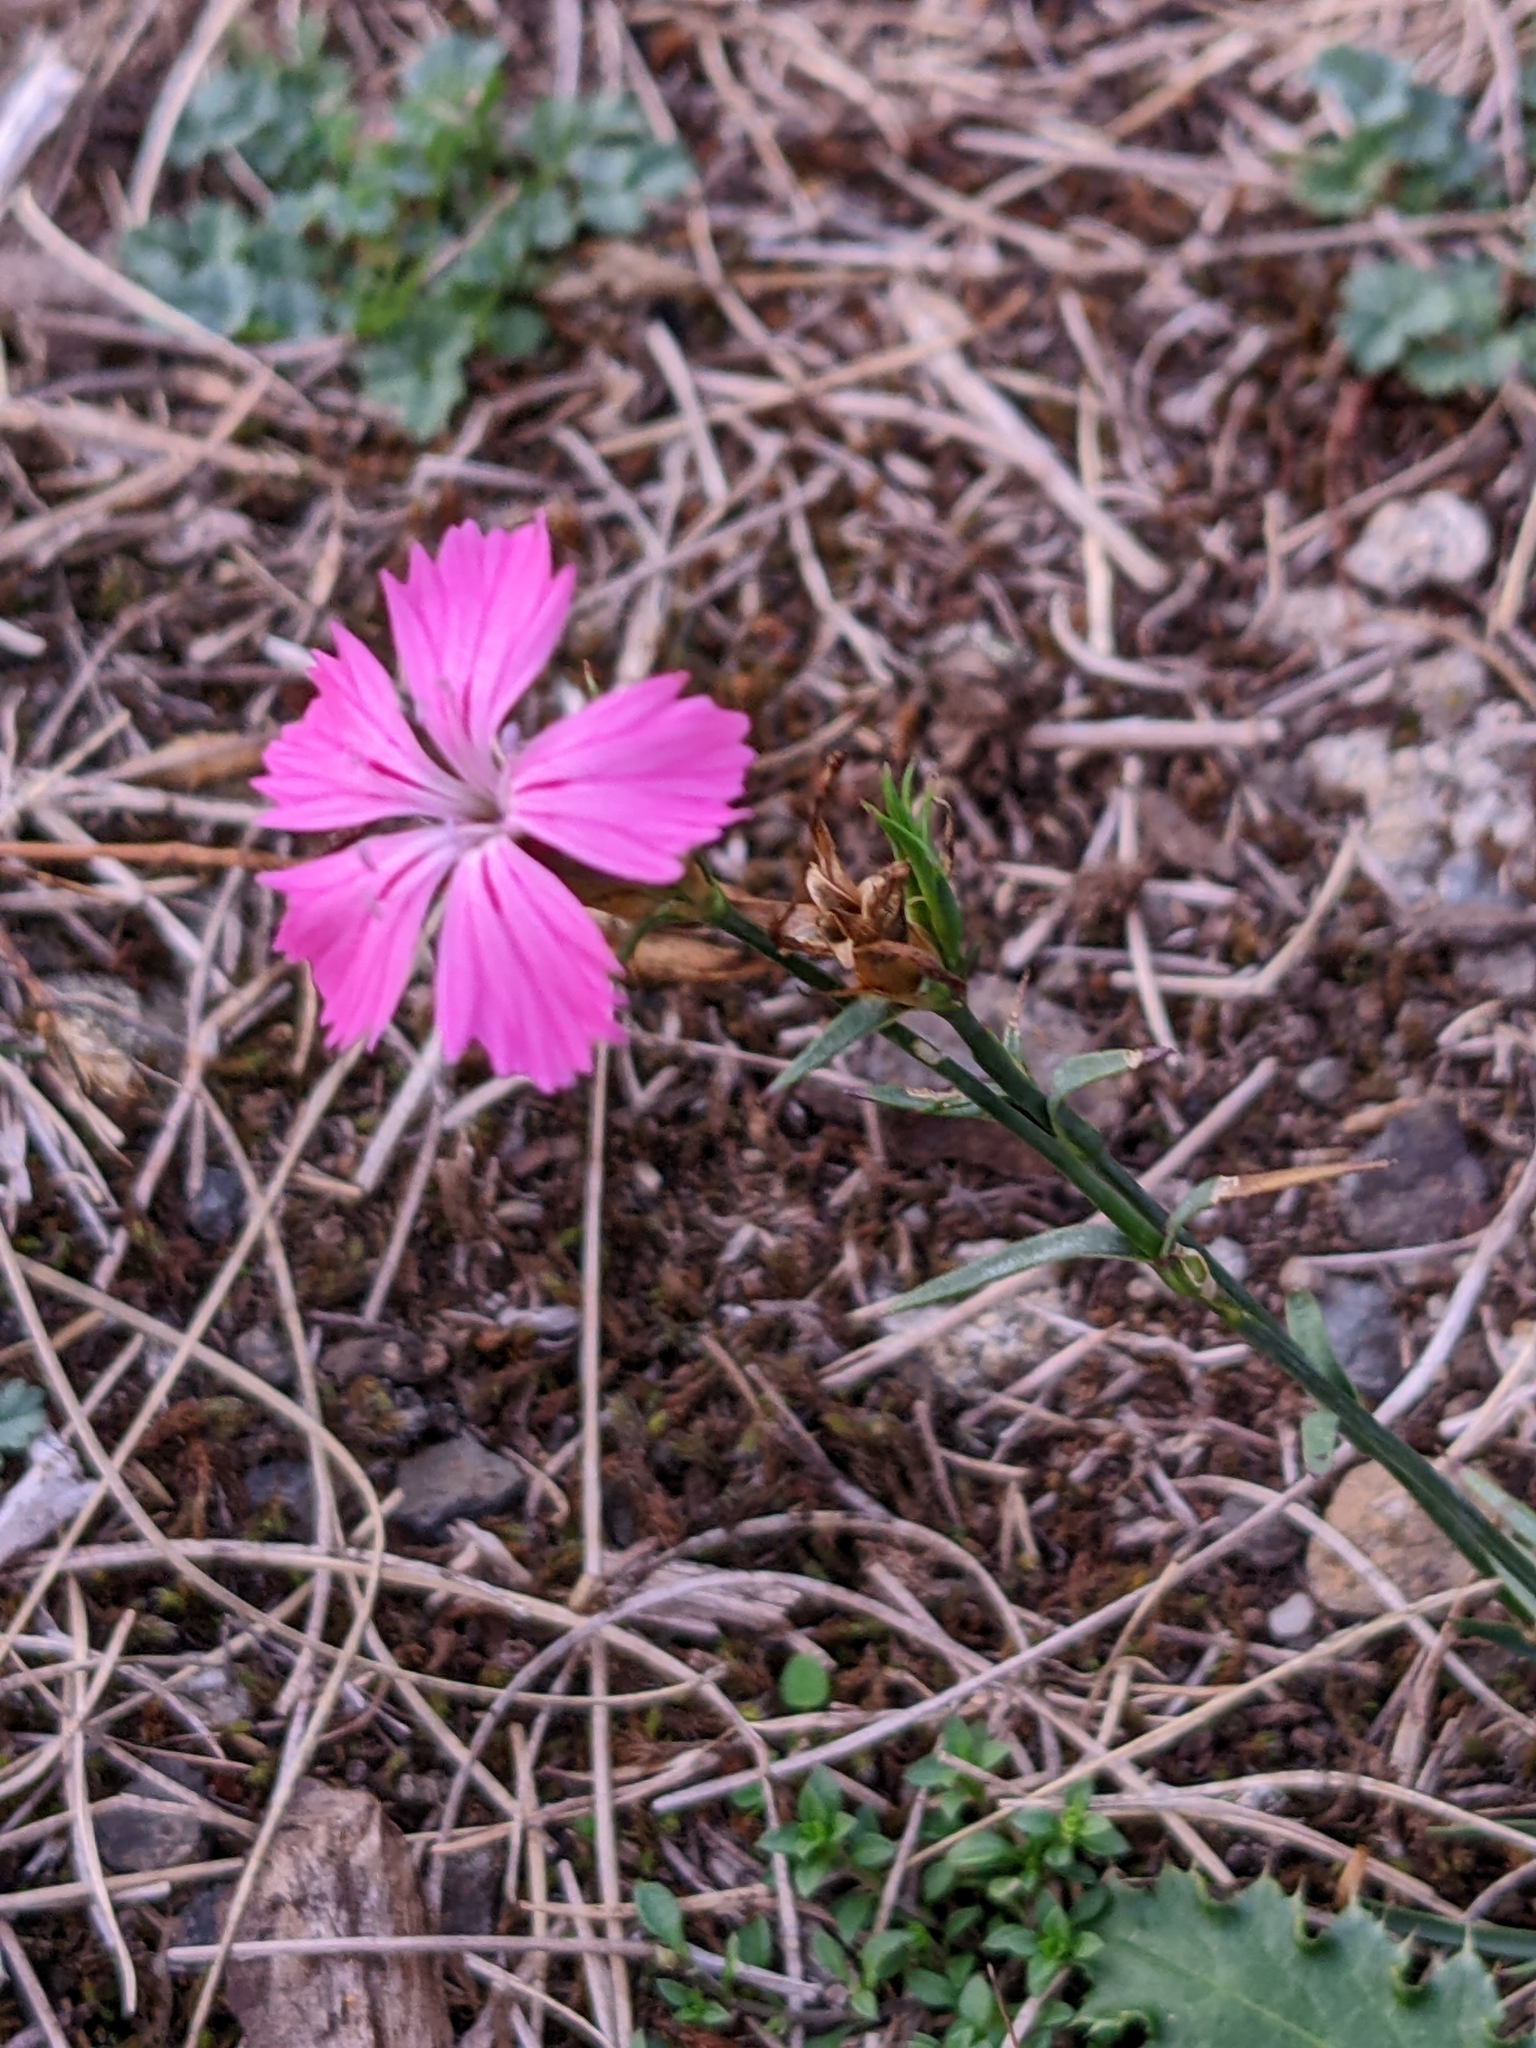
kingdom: Plantae
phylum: Tracheophyta
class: Magnoliopsida
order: Caryophyllales
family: Caryophyllaceae
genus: Dianthus
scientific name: Dianthus carthusianorum
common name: Carthusian pink
